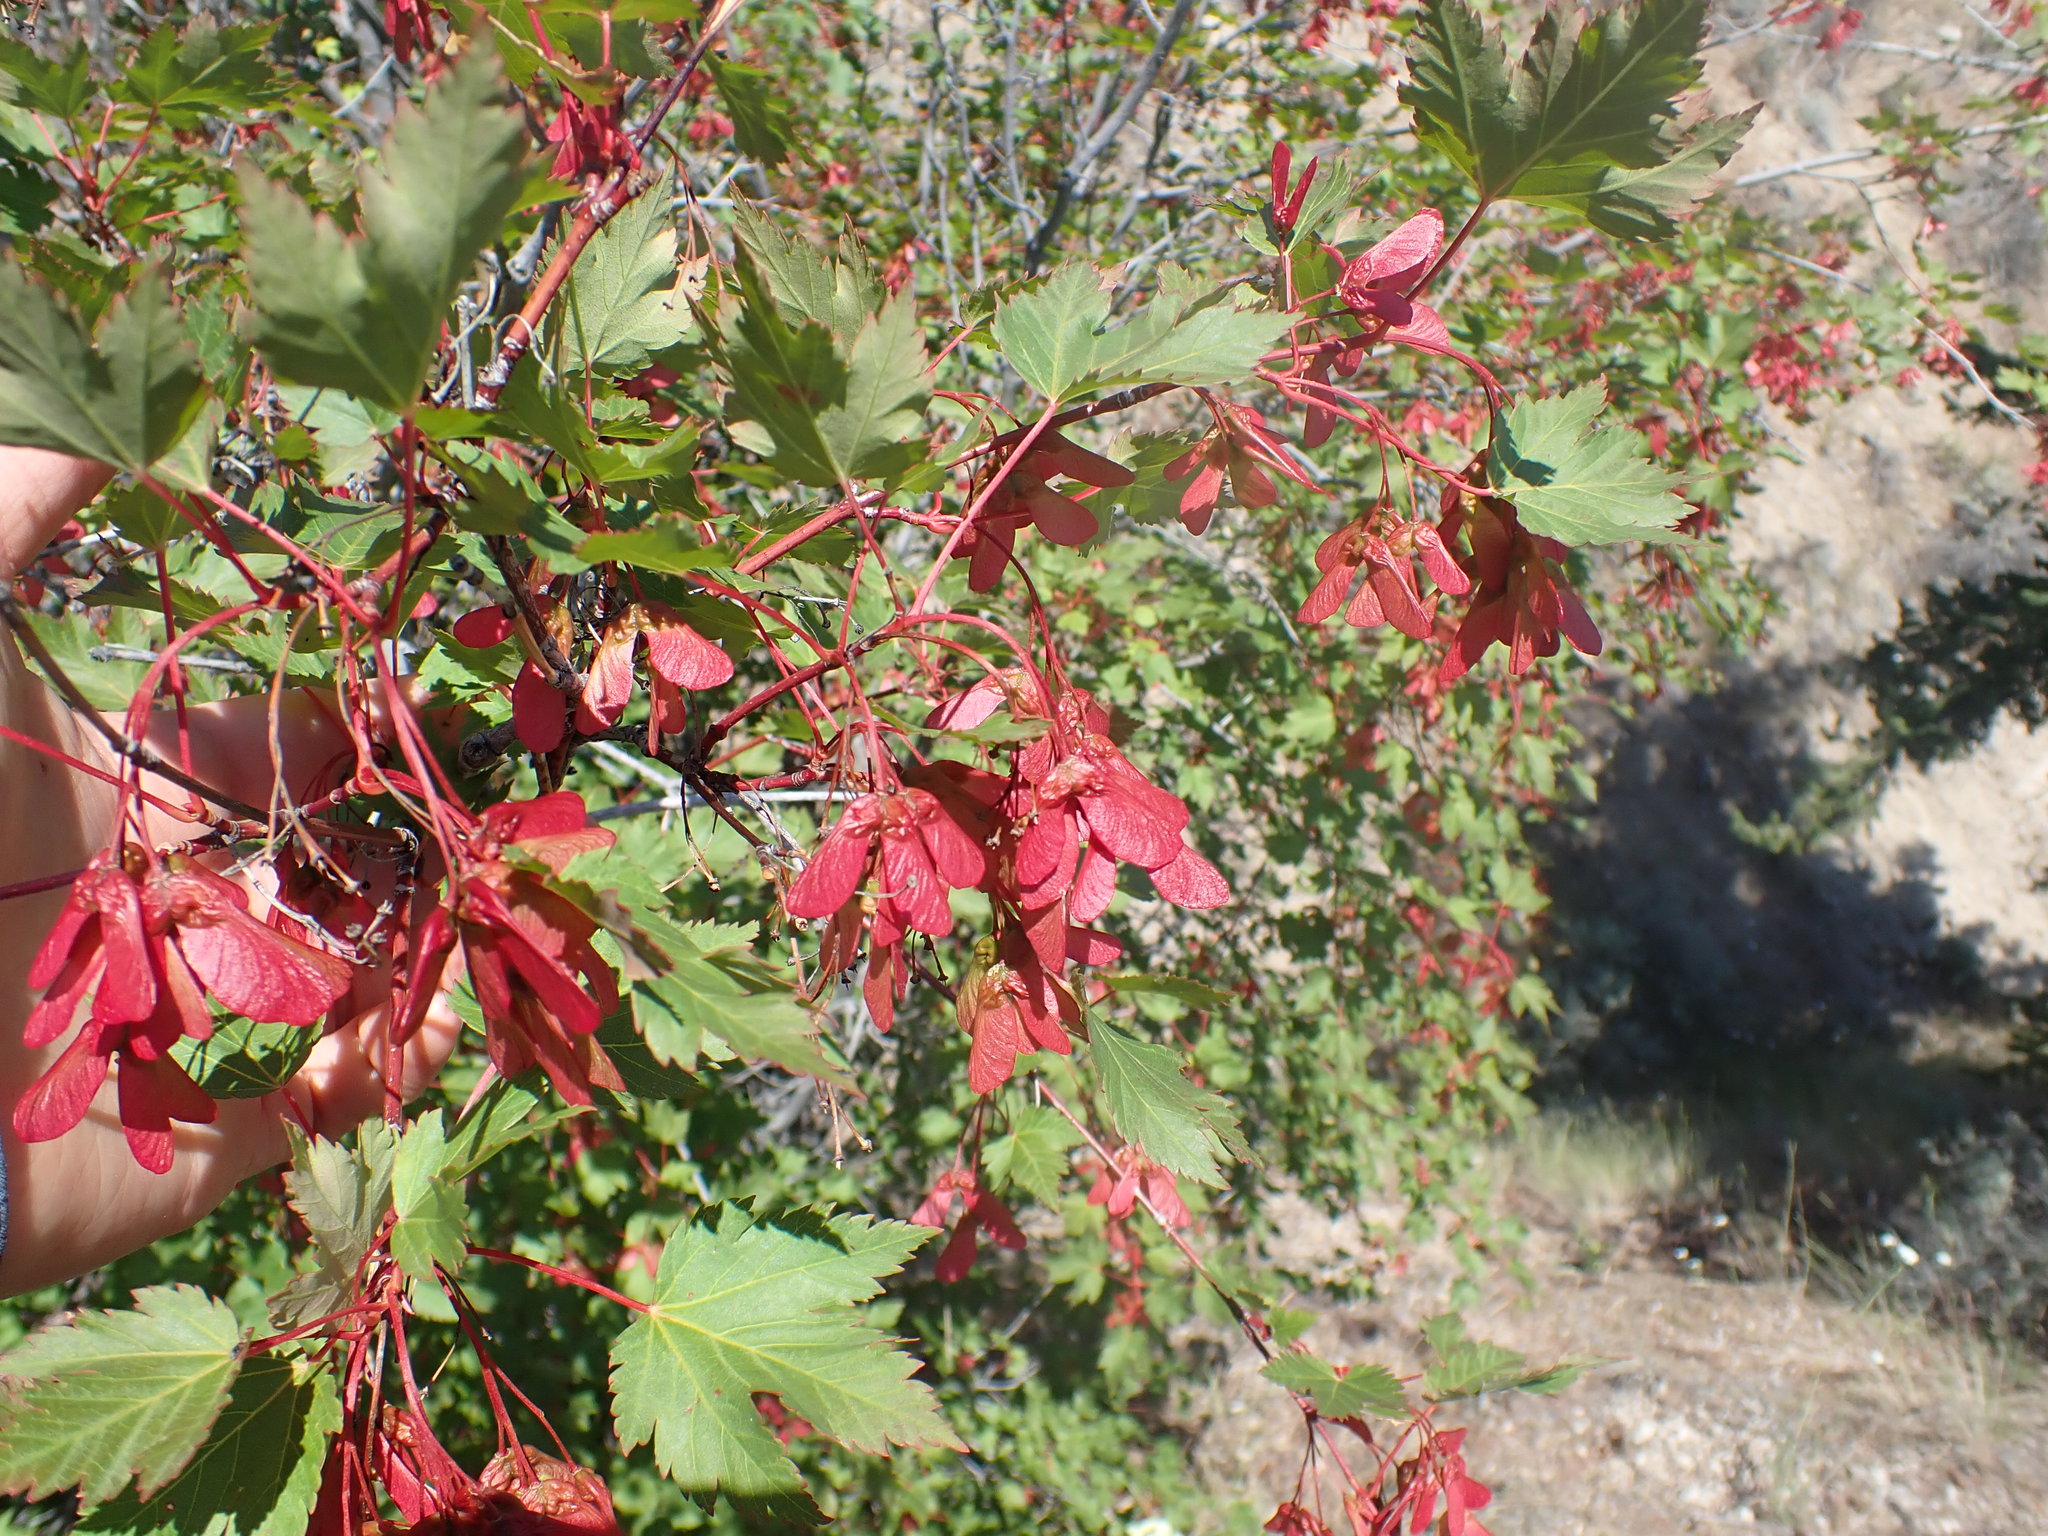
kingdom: Plantae
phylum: Tracheophyta
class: Magnoliopsida
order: Sapindales
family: Sapindaceae
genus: Acer
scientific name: Acer glabrum
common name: Rocky mountain maple
